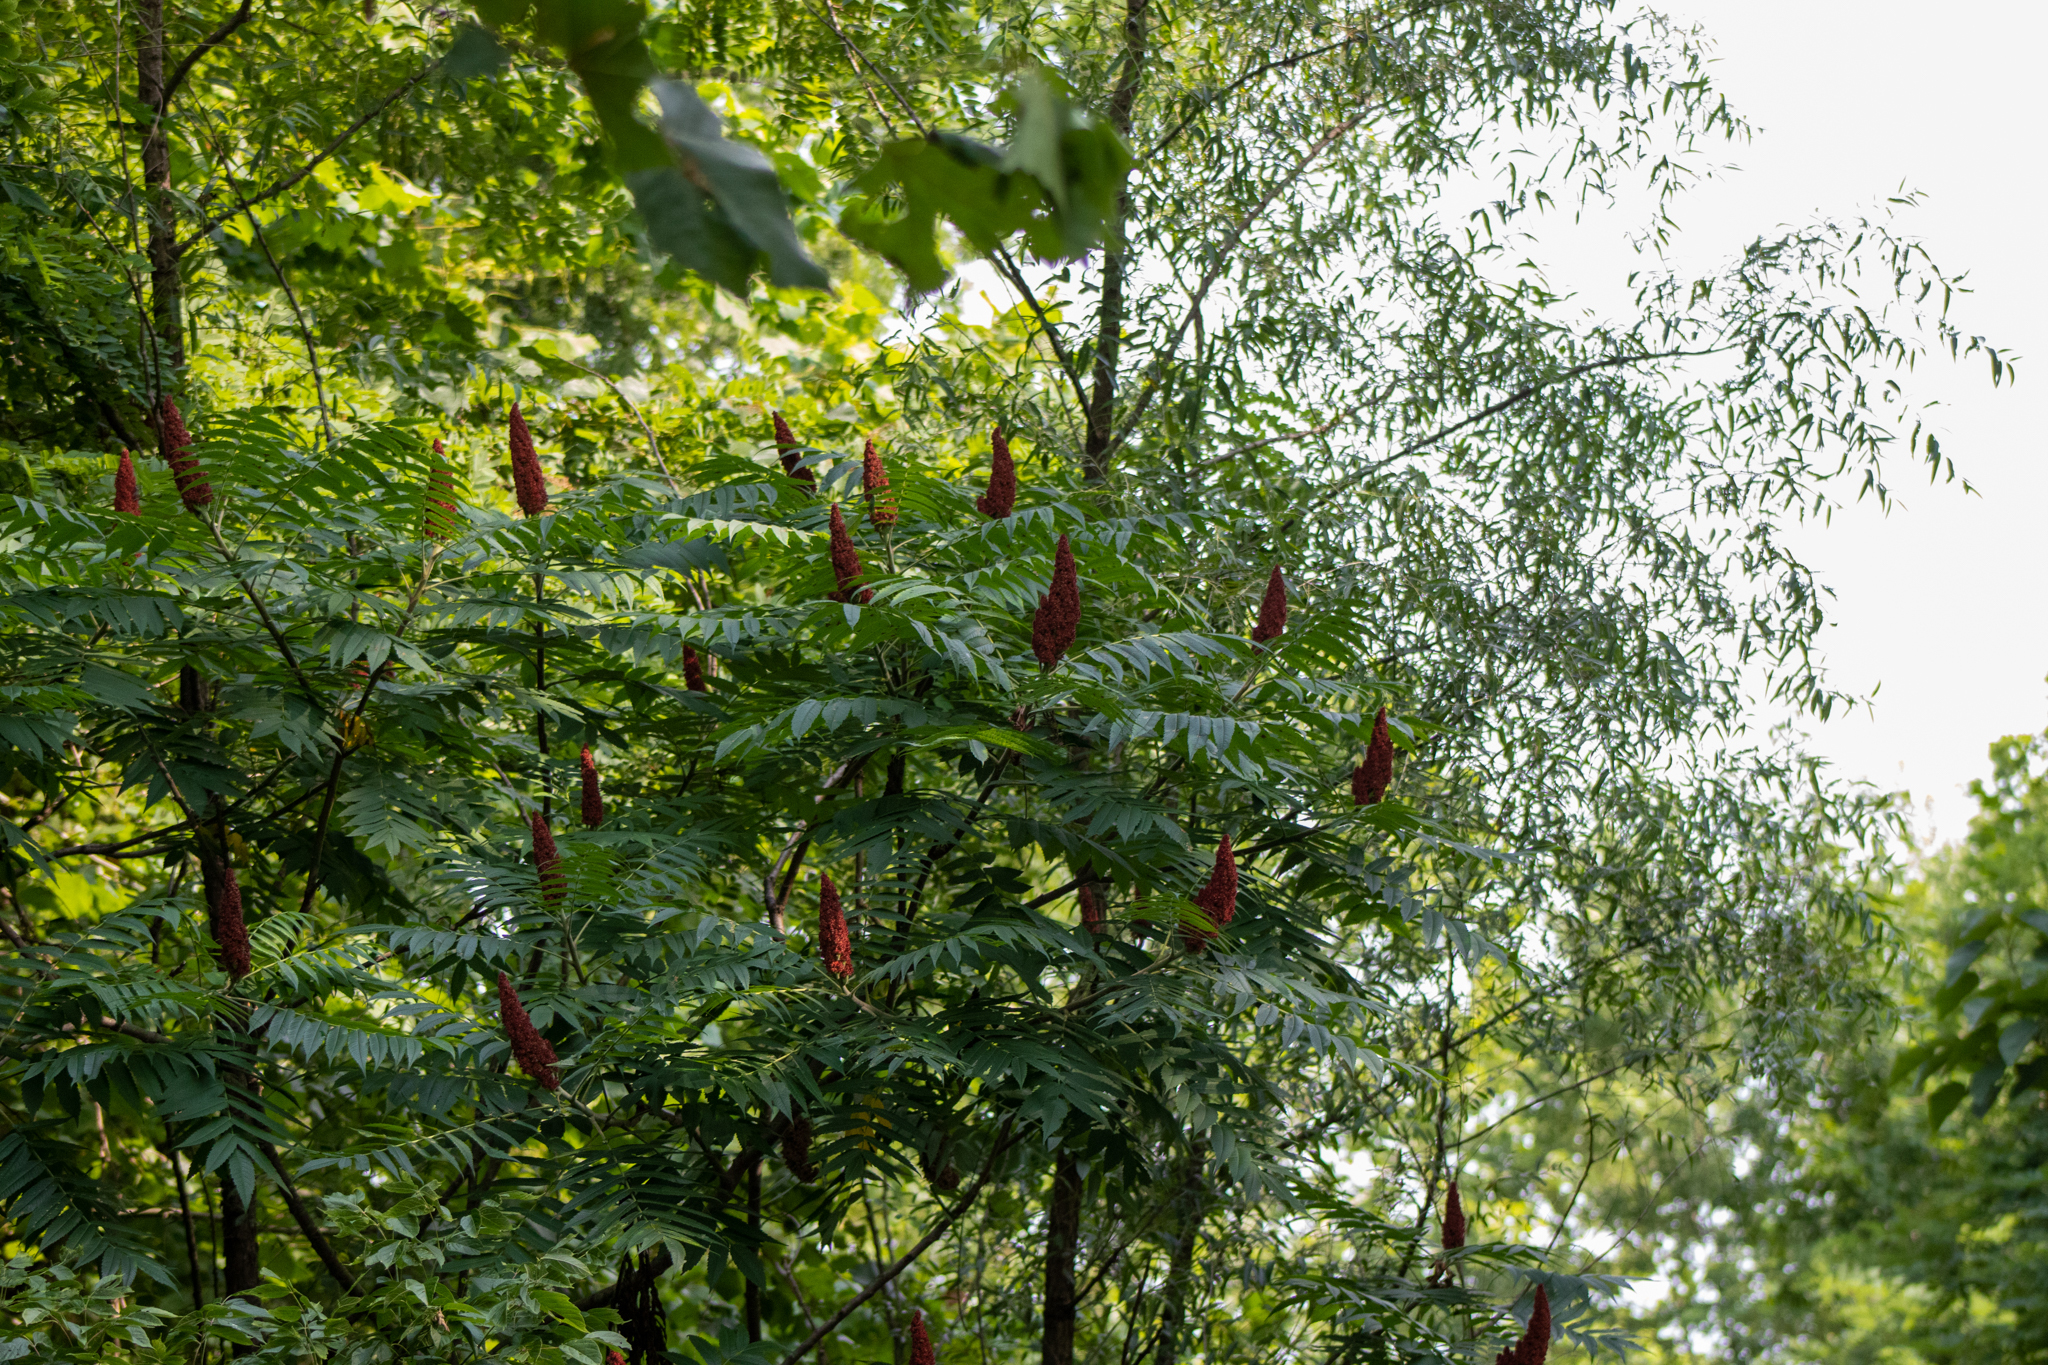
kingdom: Plantae
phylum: Tracheophyta
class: Magnoliopsida
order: Sapindales
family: Anacardiaceae
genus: Rhus
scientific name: Rhus typhina
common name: Staghorn sumac
